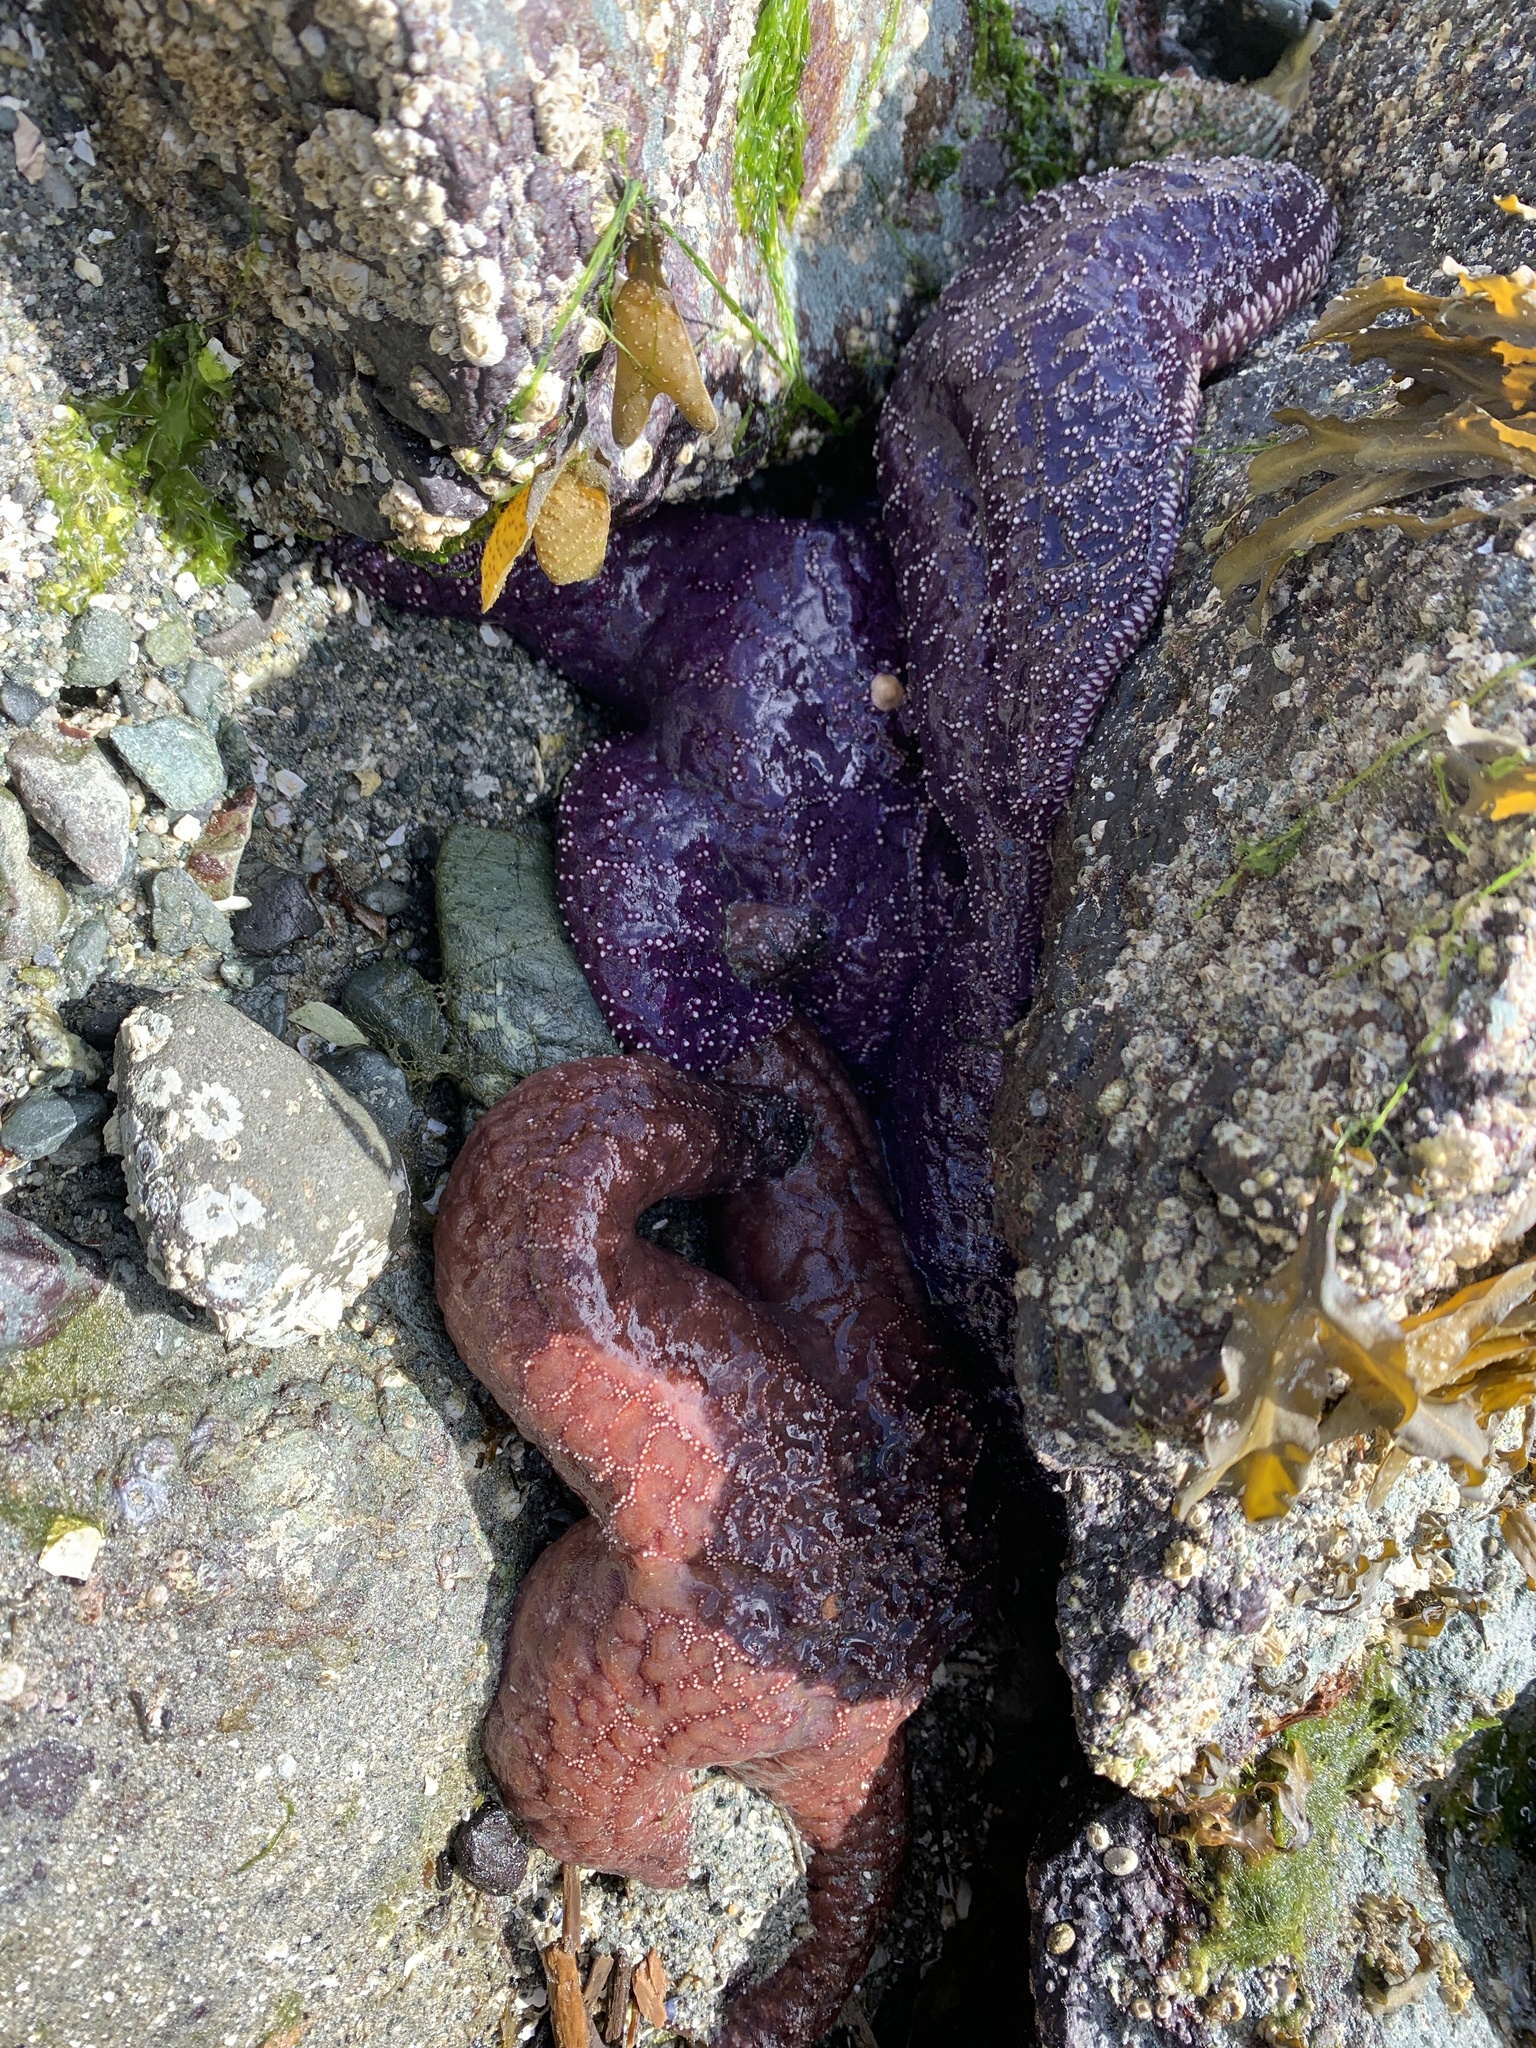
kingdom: Animalia
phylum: Echinodermata
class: Asteroidea
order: Forcipulatida
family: Asteriidae
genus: Pisaster
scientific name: Pisaster ochraceus
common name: Ochre stars
